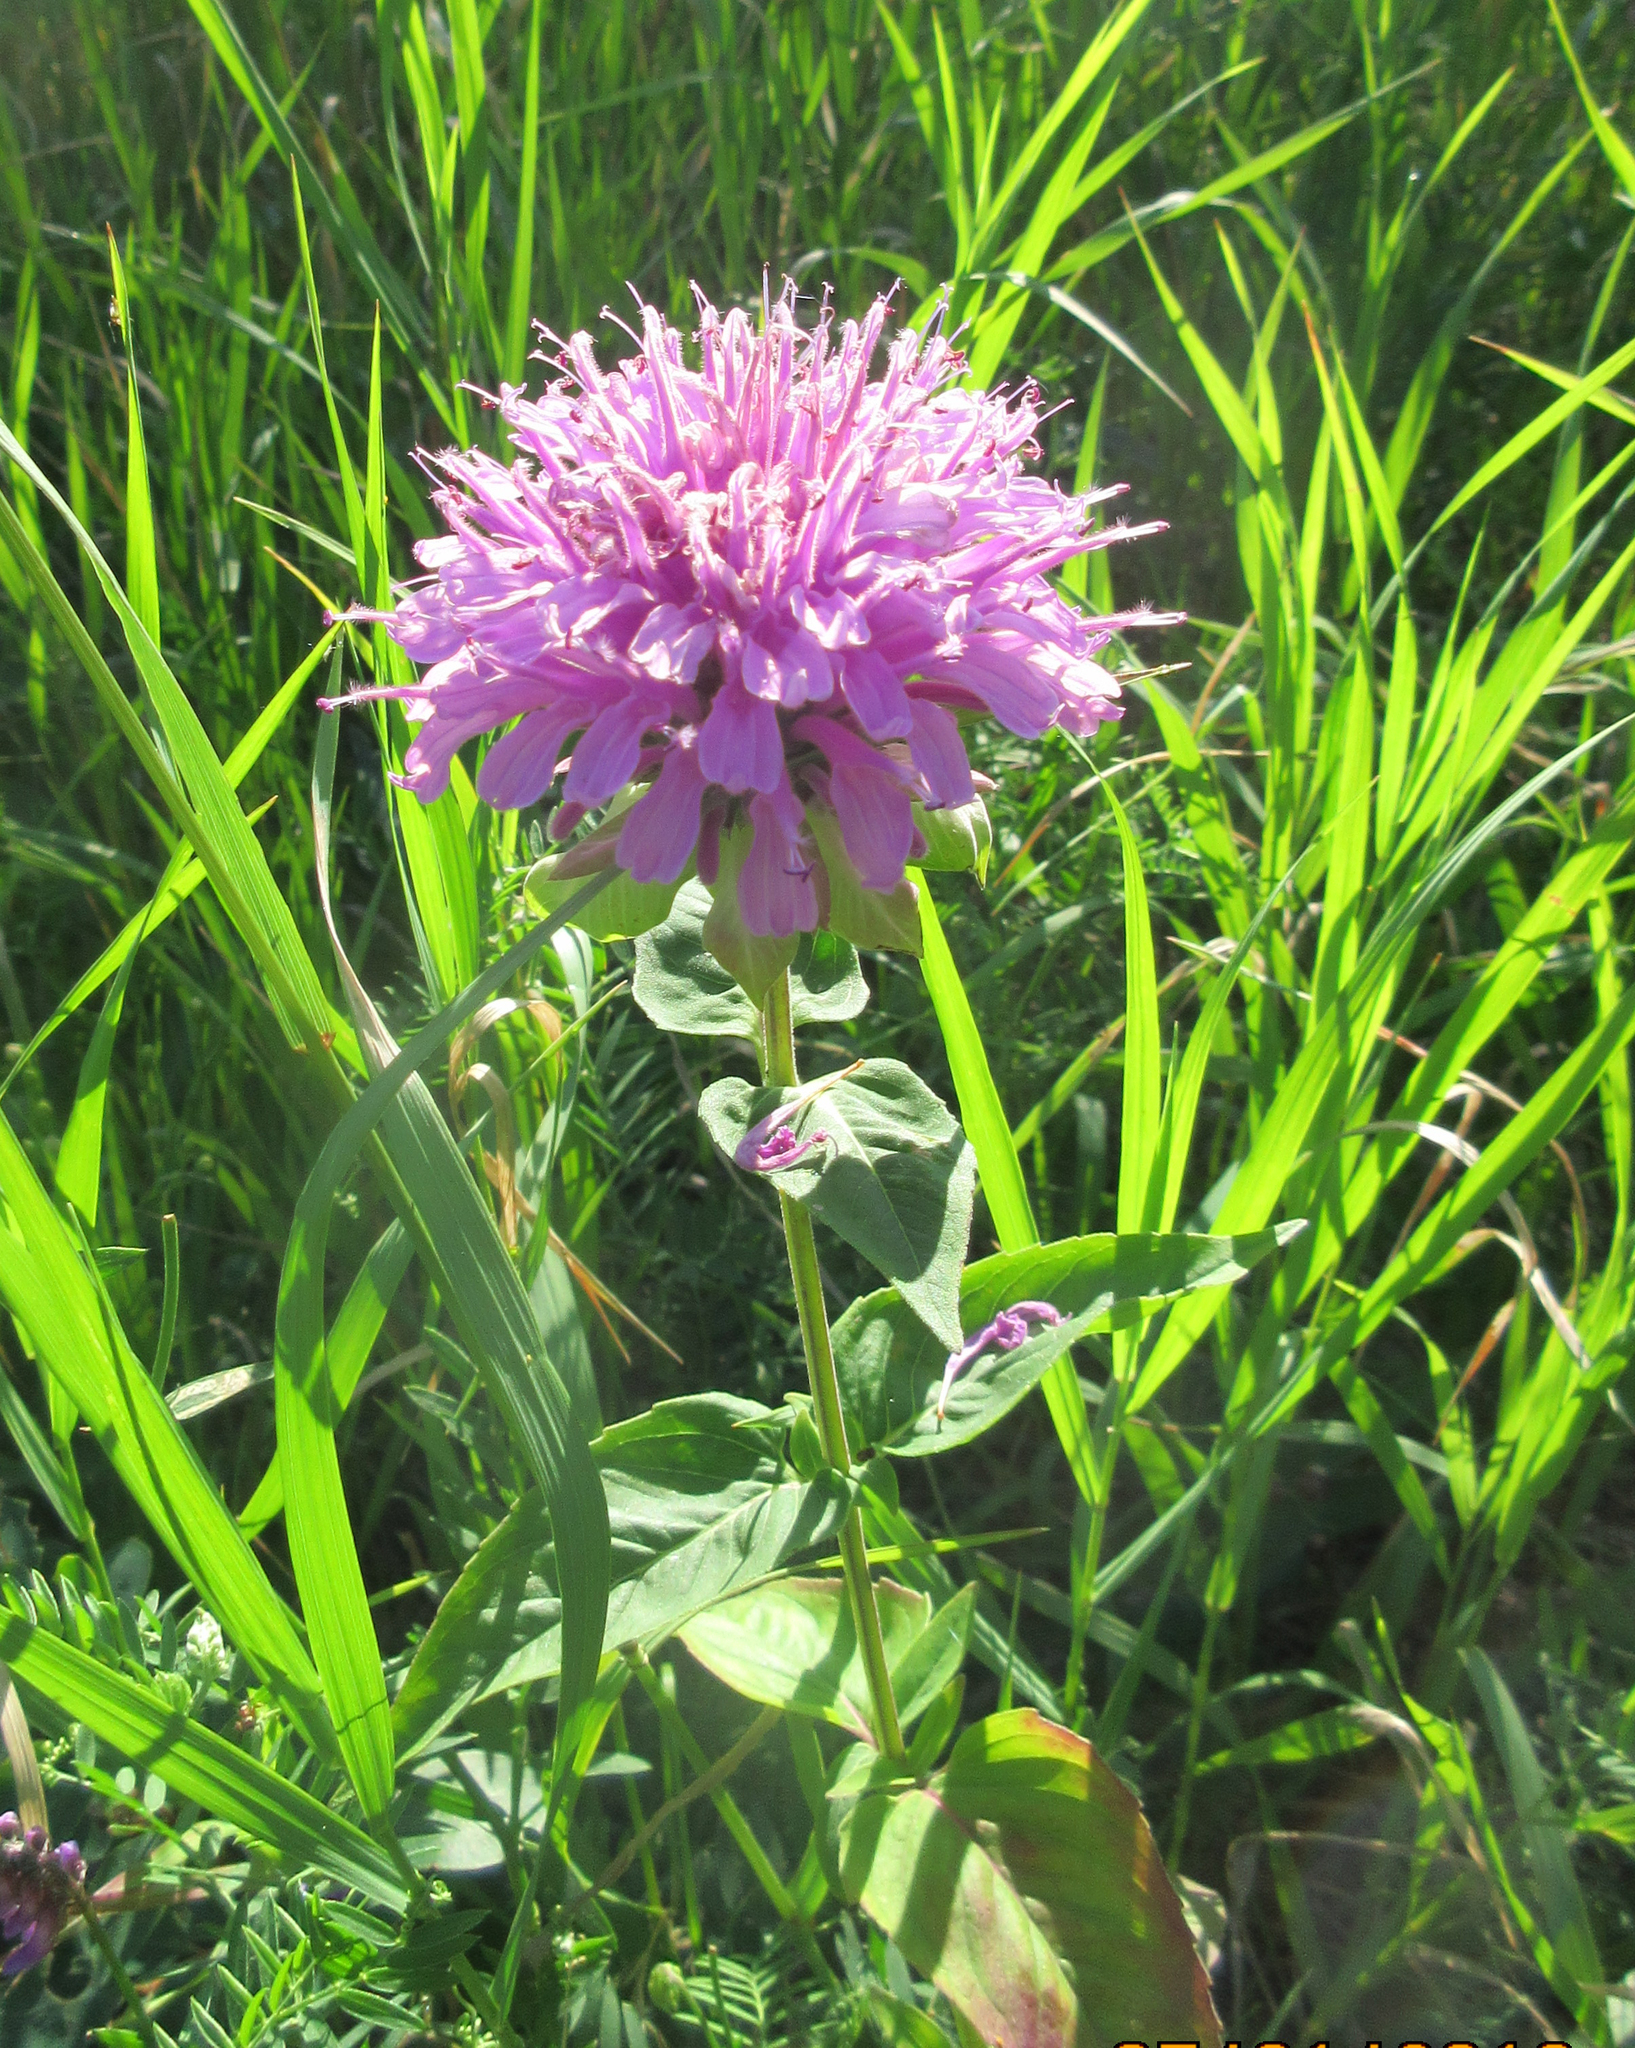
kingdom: Plantae
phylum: Tracheophyta
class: Magnoliopsida
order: Lamiales
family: Lamiaceae
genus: Monarda
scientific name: Monarda fistulosa
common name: Purple beebalm
